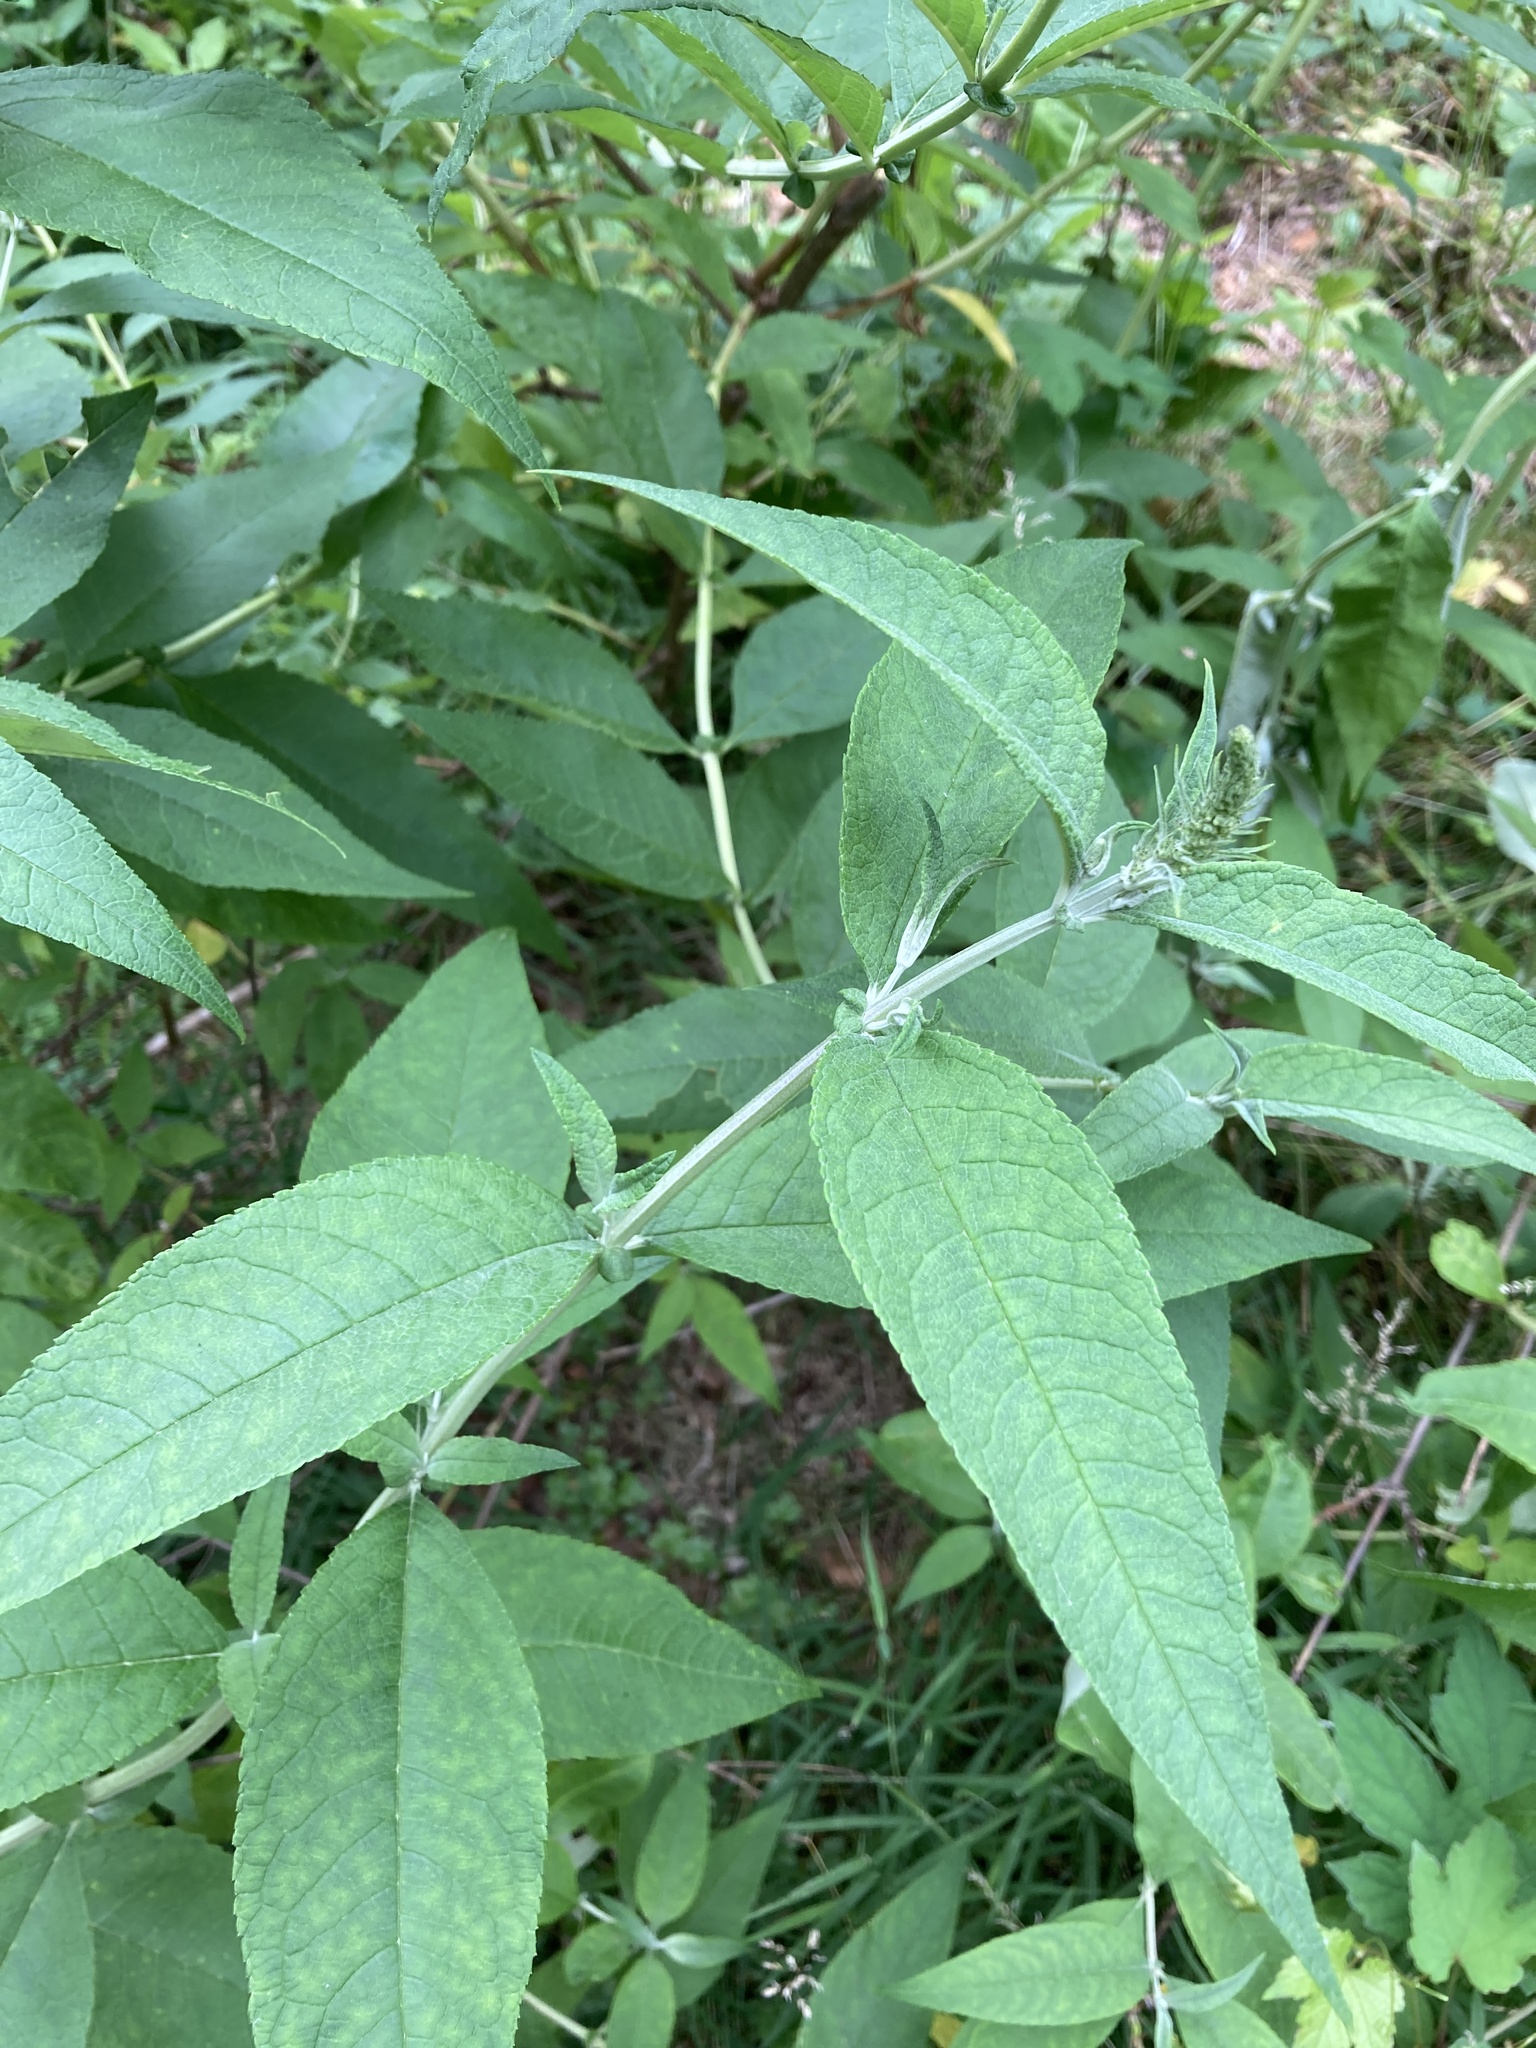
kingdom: Plantae
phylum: Tracheophyta
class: Magnoliopsida
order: Lamiales
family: Scrophulariaceae
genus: Buddleja
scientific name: Buddleja davidii
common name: Butterfly-bush
